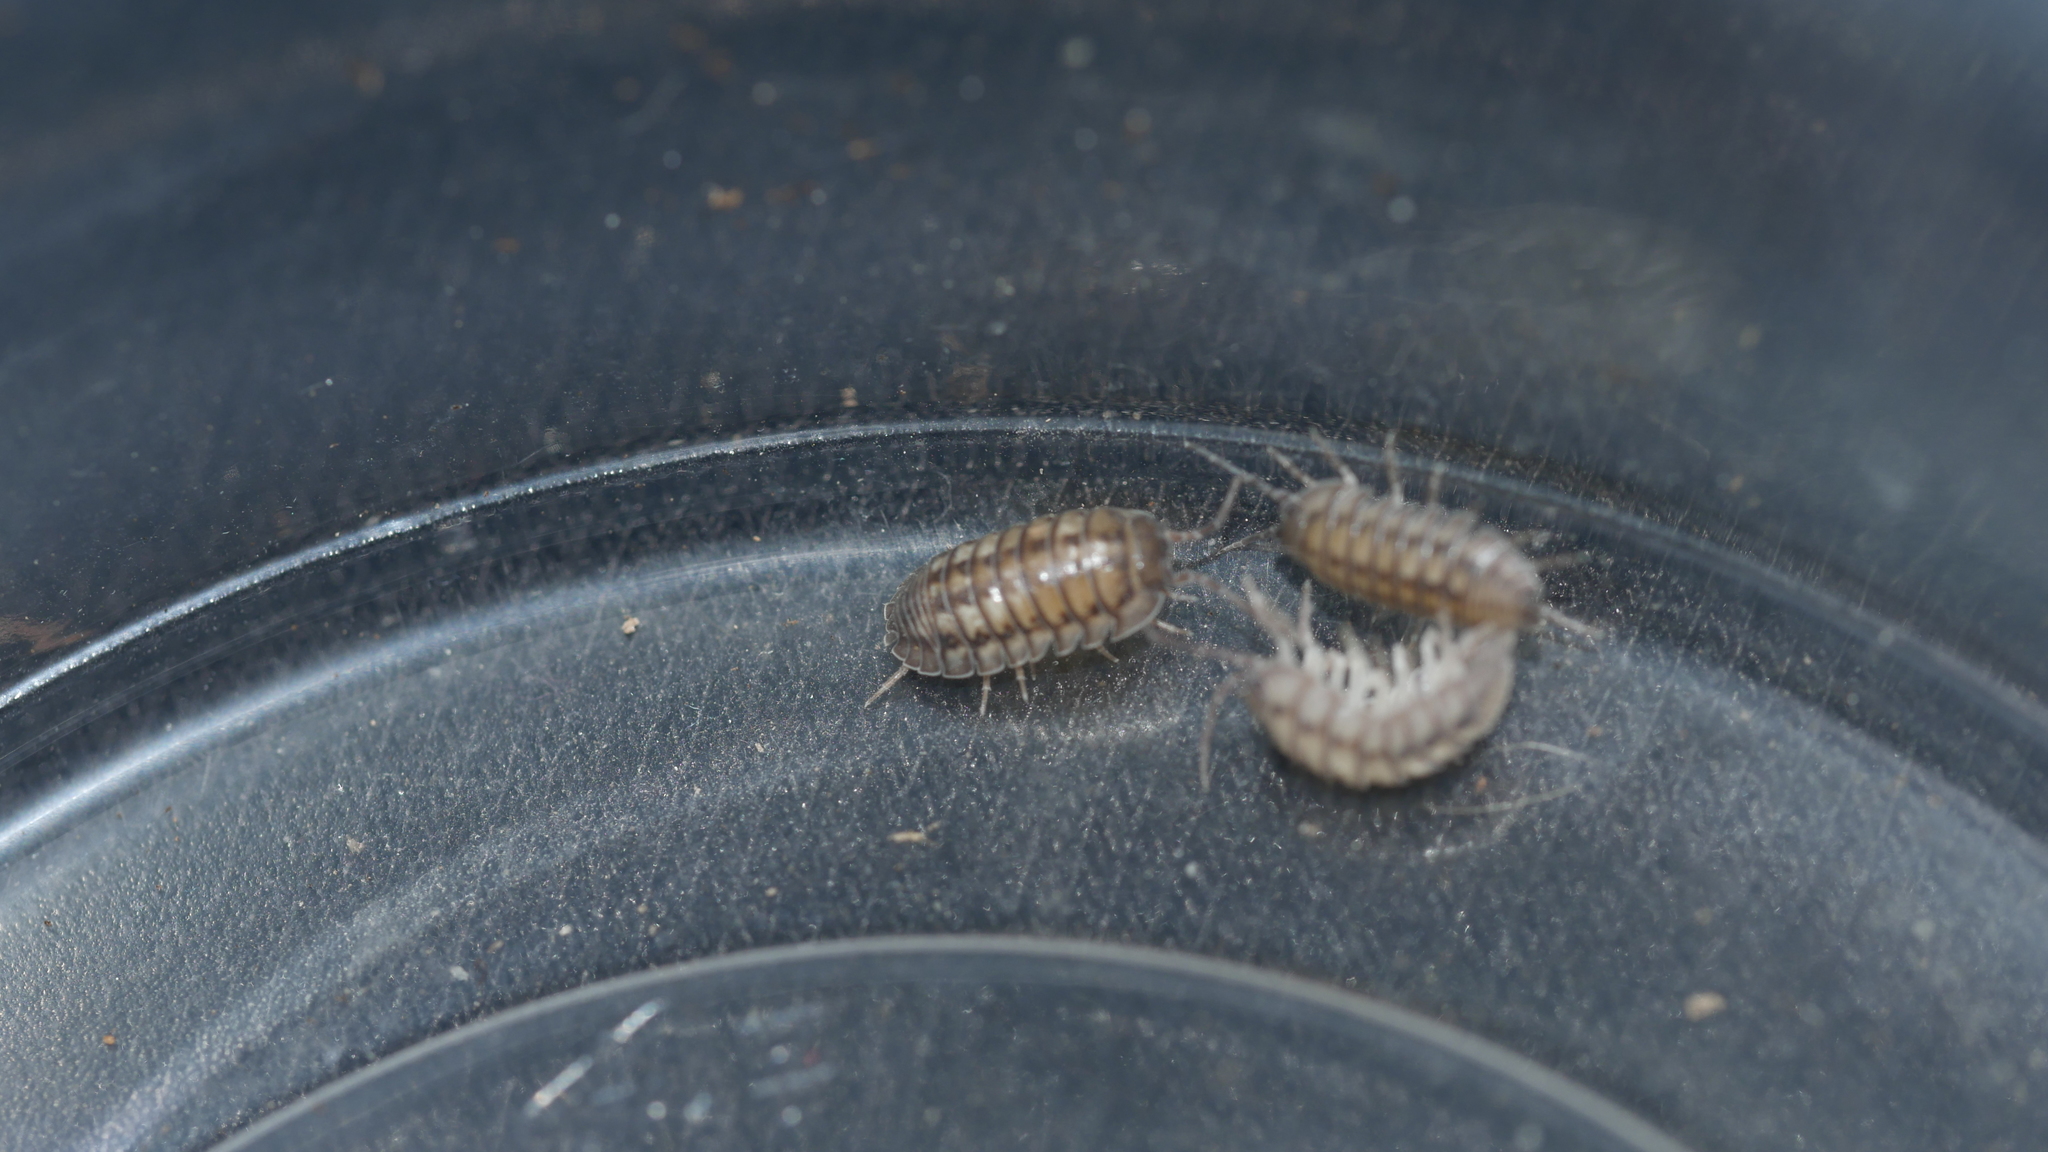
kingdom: Animalia
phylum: Arthropoda
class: Malacostraca
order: Isopoda
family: Armadillidiidae
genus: Armadillidium
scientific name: Armadillidium nasatum
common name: Isopod
